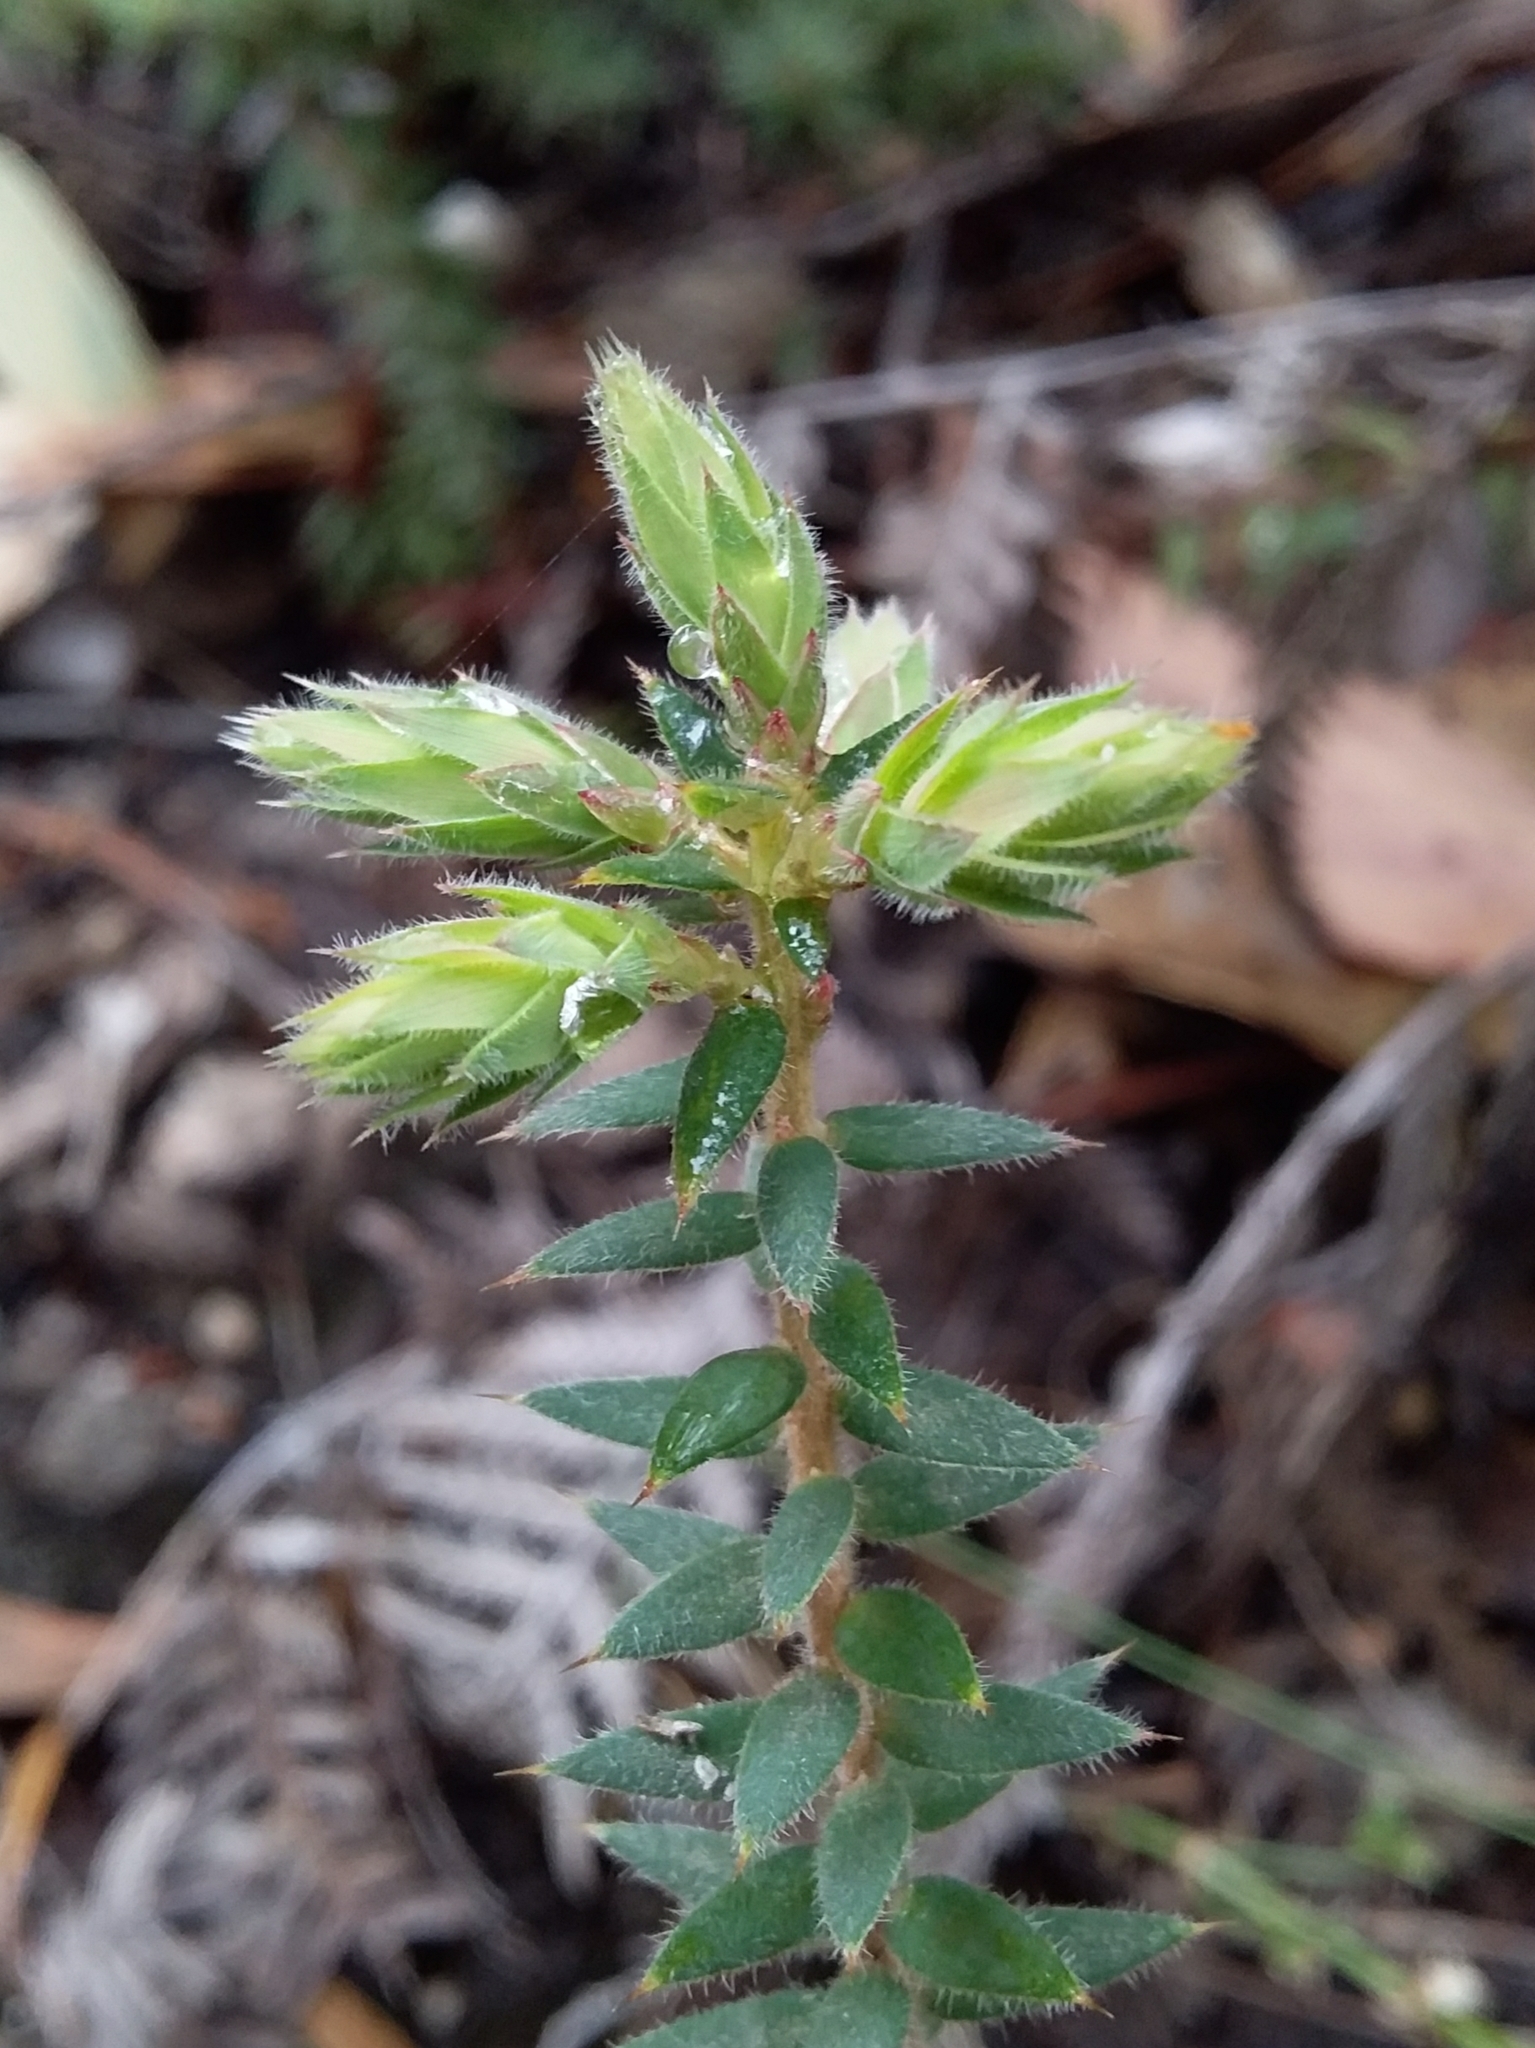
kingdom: Plantae
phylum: Tracheophyta
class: Magnoliopsida
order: Ericales
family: Ericaceae
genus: Acrotriche
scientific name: Acrotriche fasciculiflora
